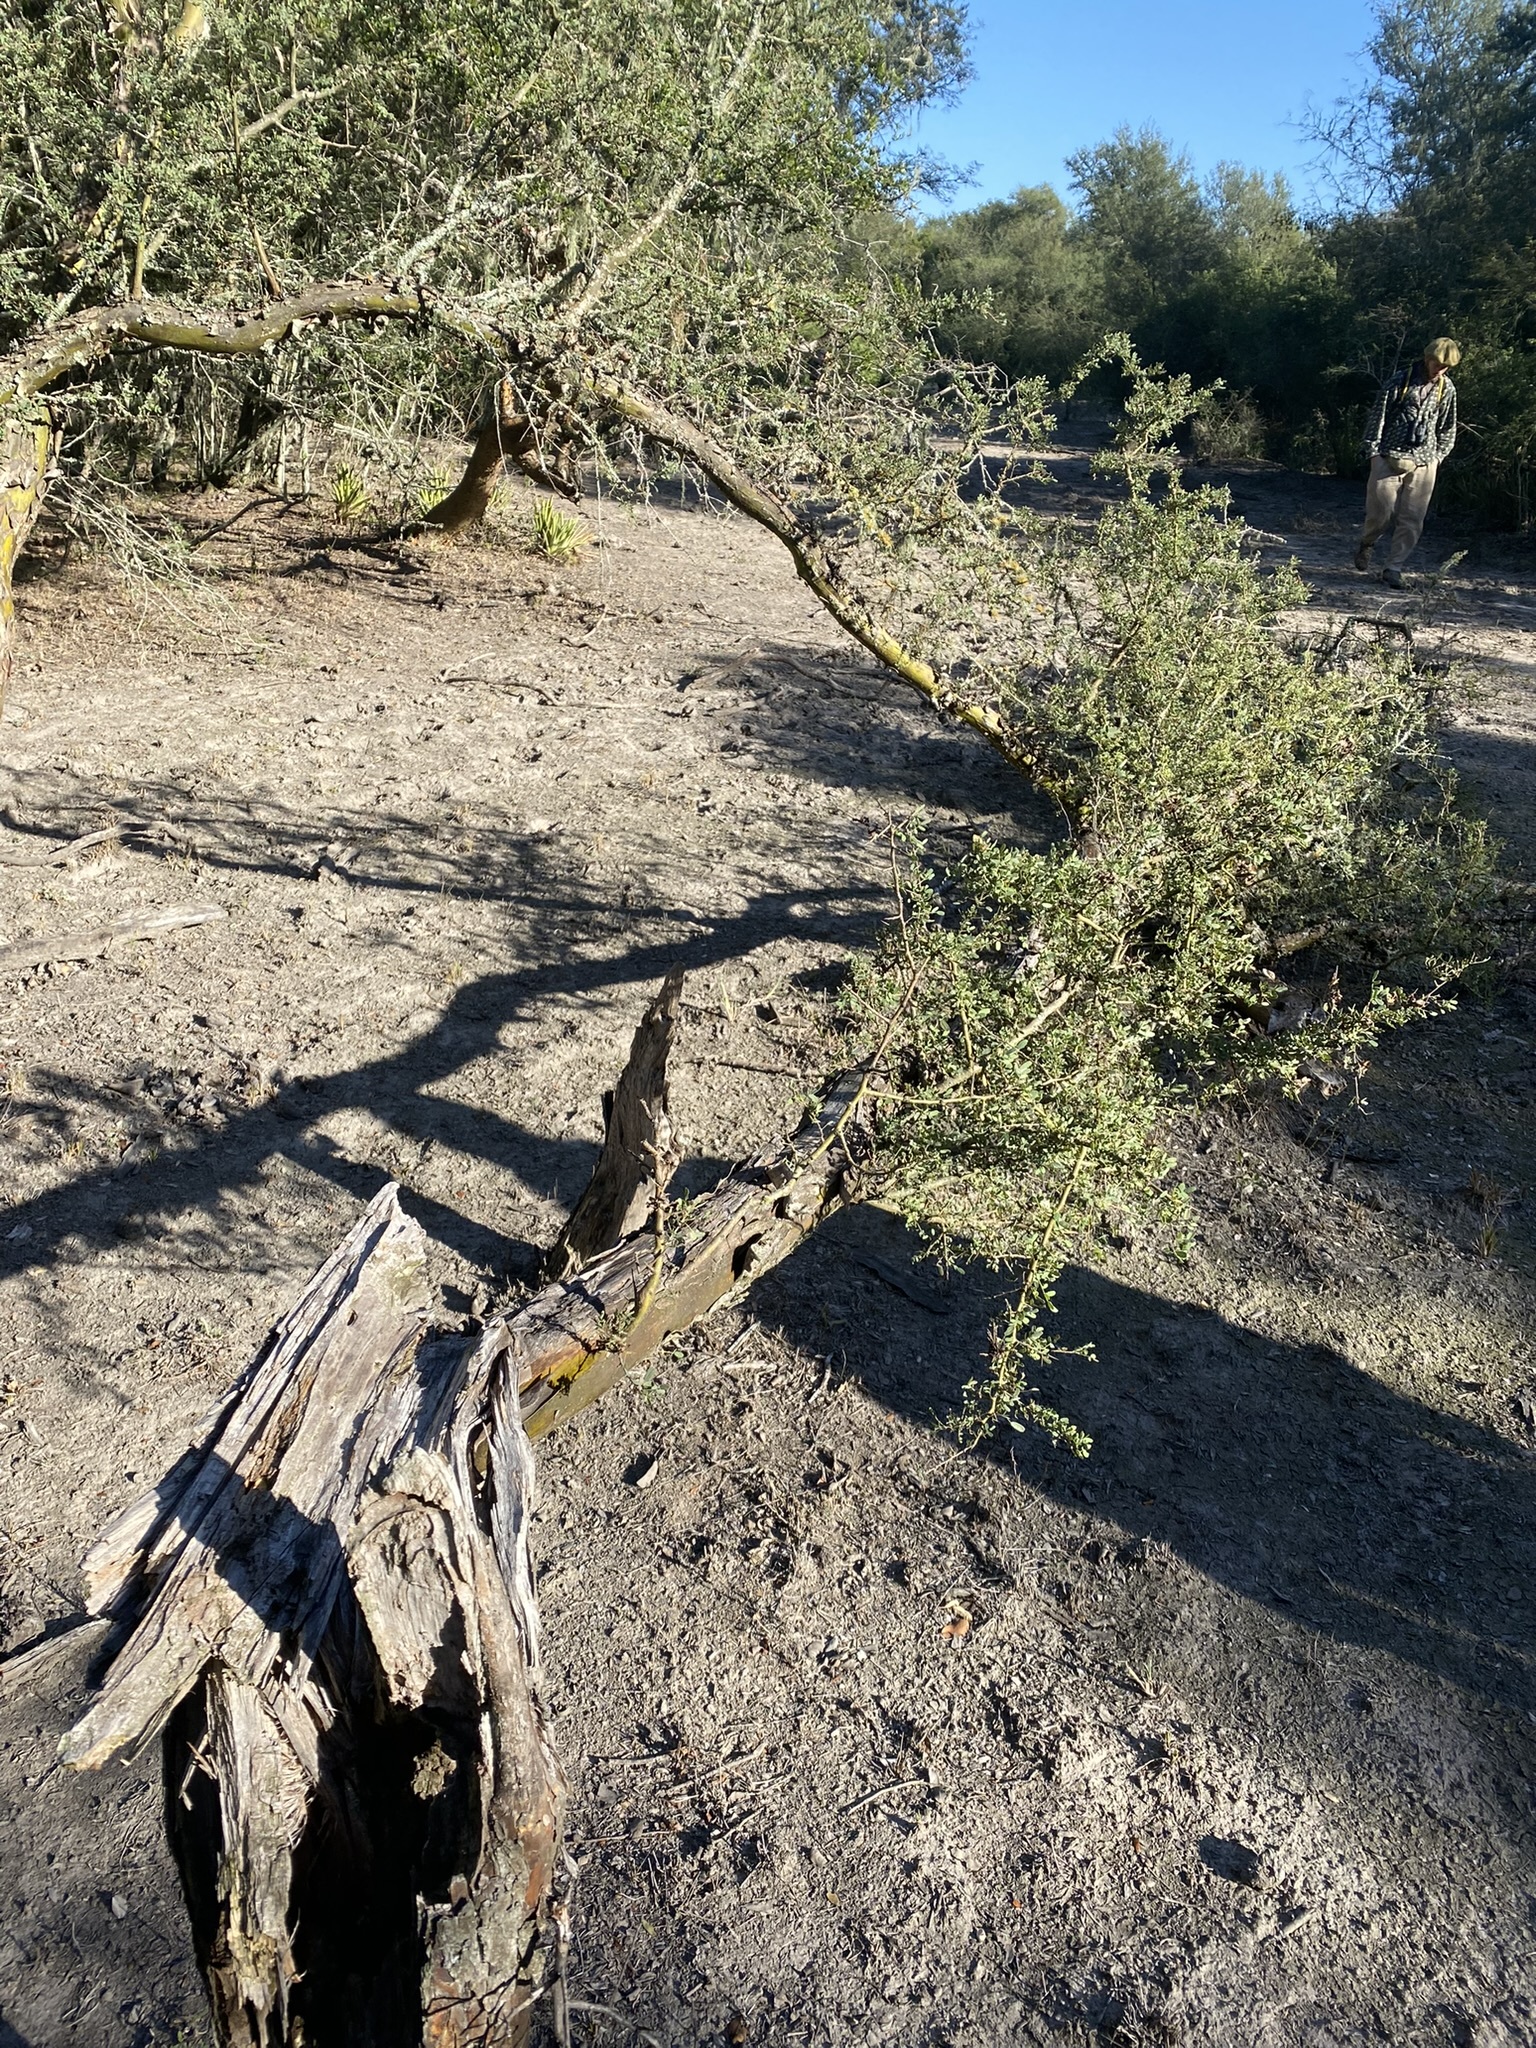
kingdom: Plantae
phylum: Tracheophyta
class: Magnoliopsida
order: Fabales
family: Fabaceae
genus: Geoffroea
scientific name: Geoffroea decorticans
